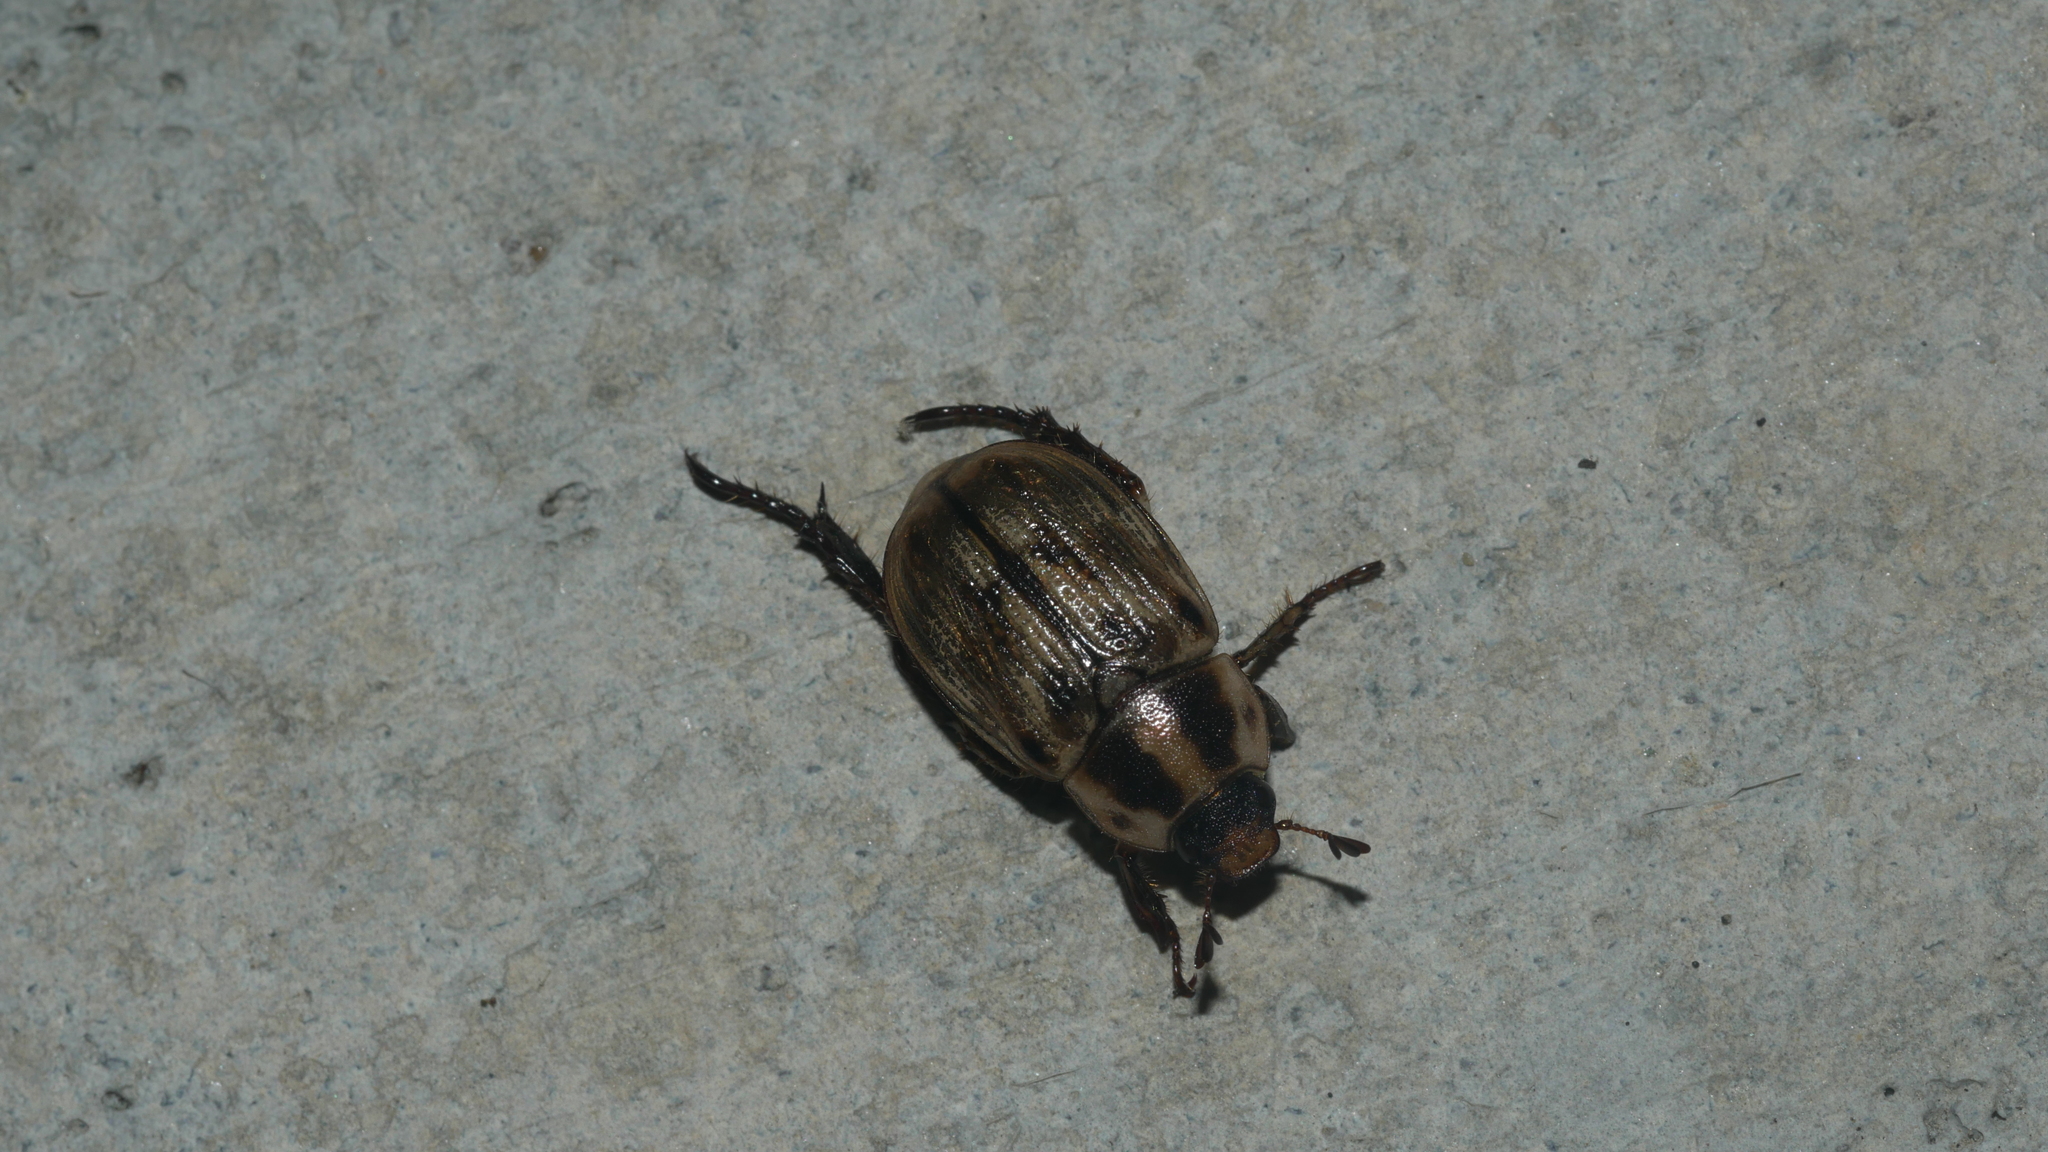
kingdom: Animalia
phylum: Arthropoda
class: Insecta
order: Coleoptera
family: Scarabaeidae
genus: Exomala
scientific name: Exomala orientalis
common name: Oriental beetle
